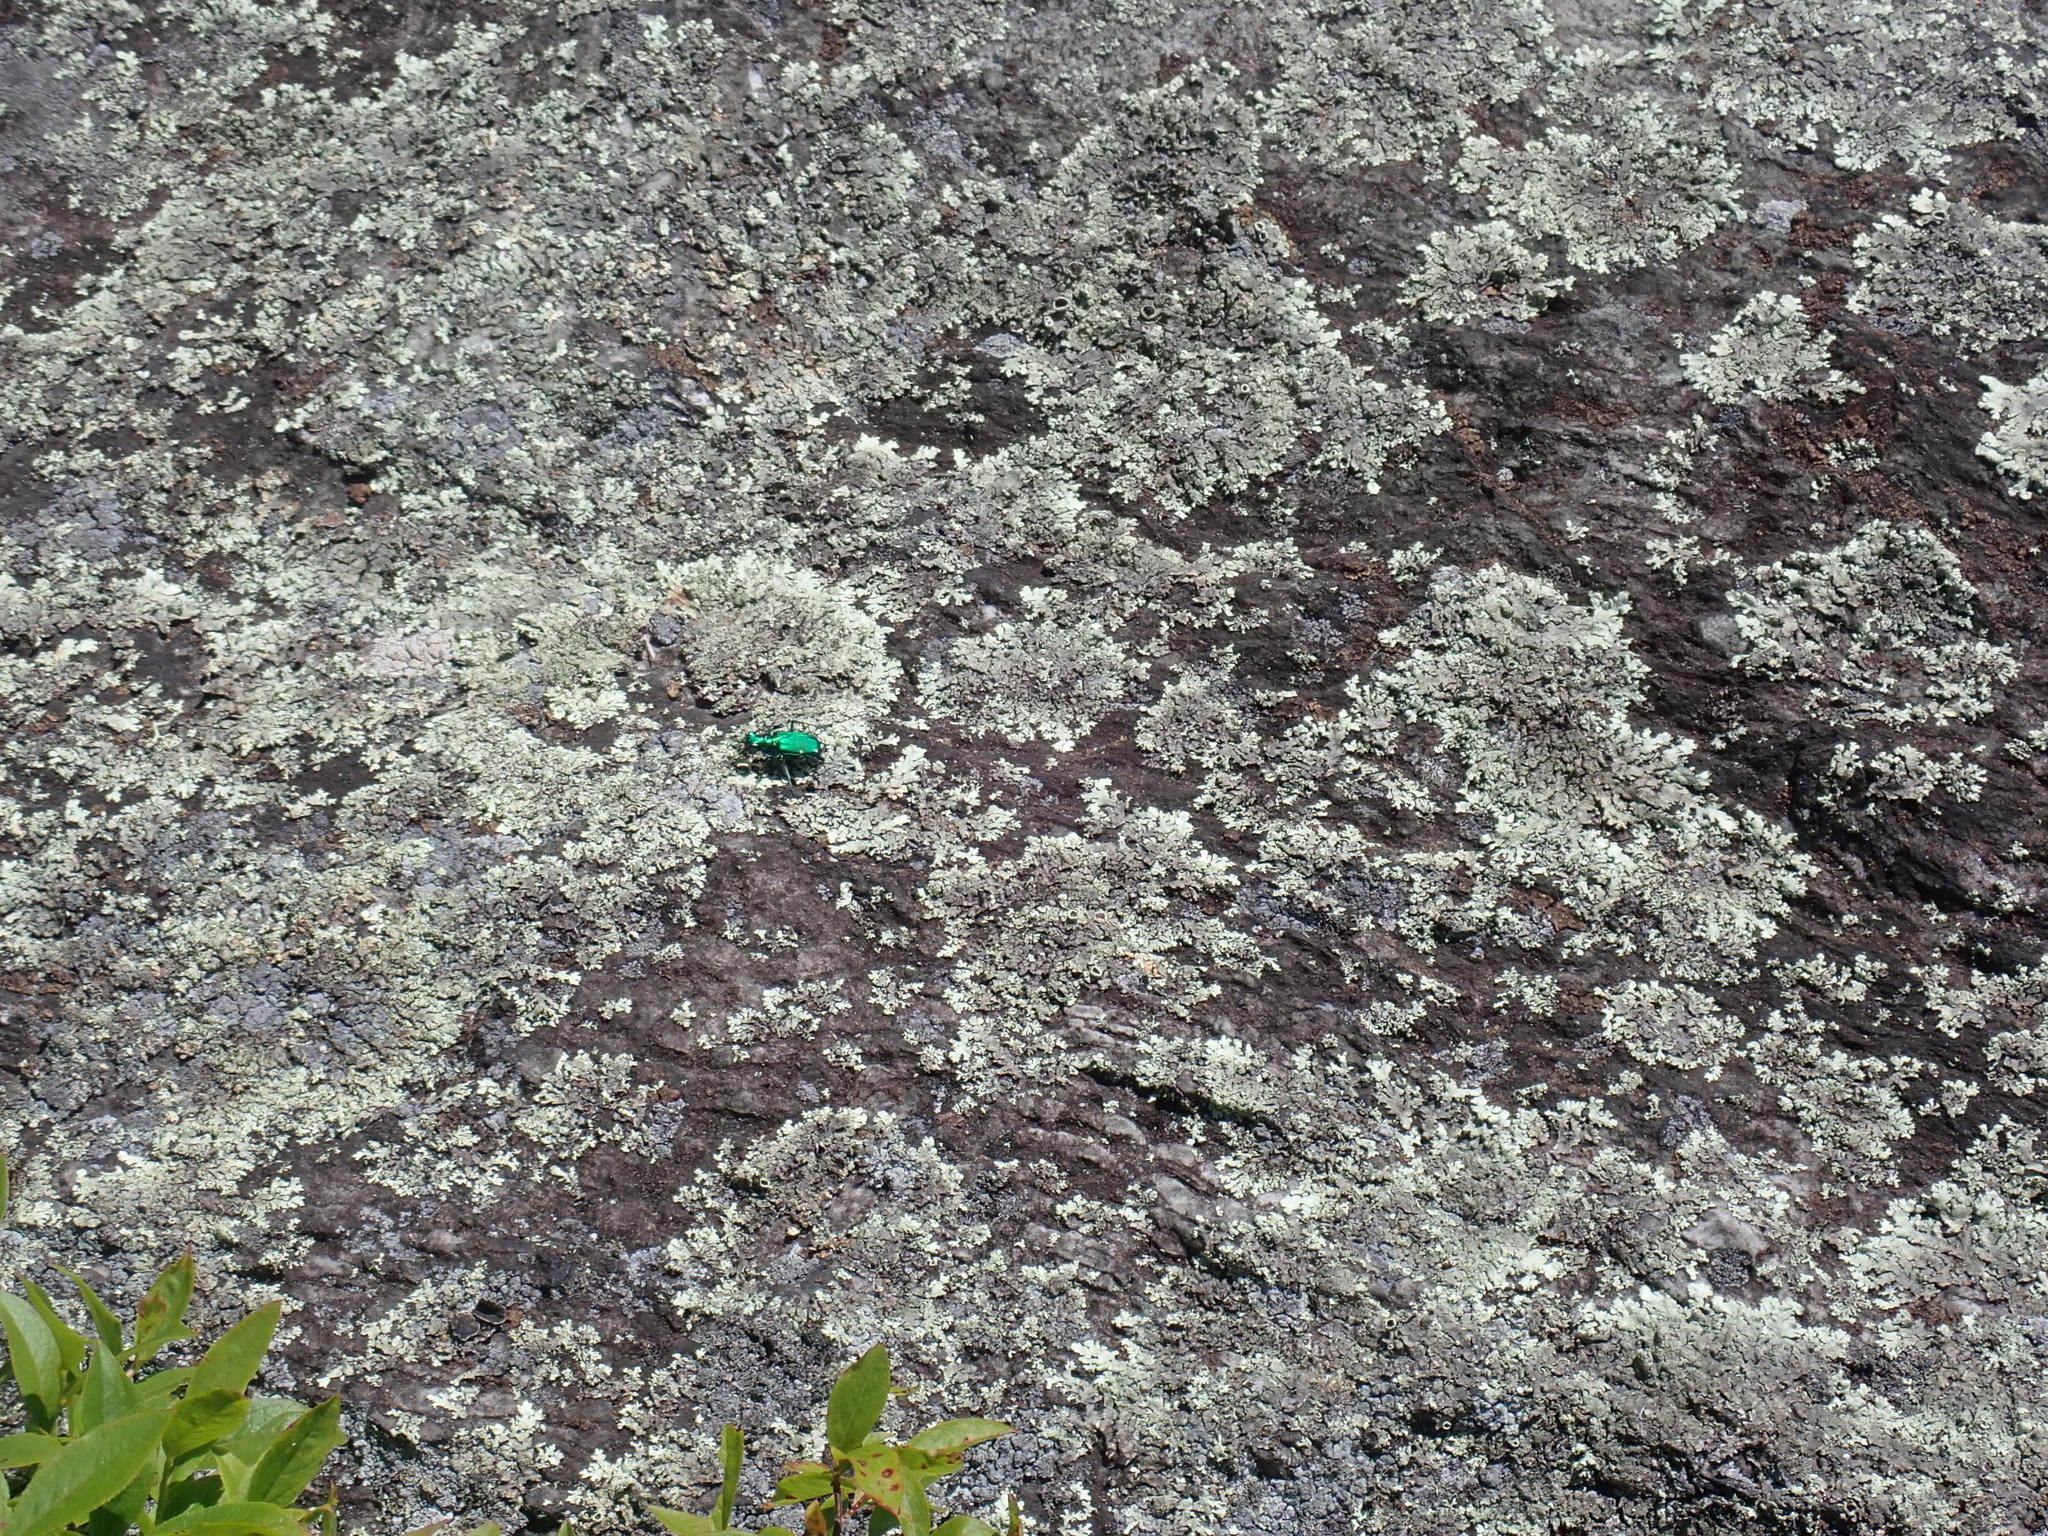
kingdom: Animalia
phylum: Arthropoda
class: Insecta
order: Coleoptera
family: Carabidae
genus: Cicindela
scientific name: Cicindela sexguttata
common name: Six-spotted tiger beetle
